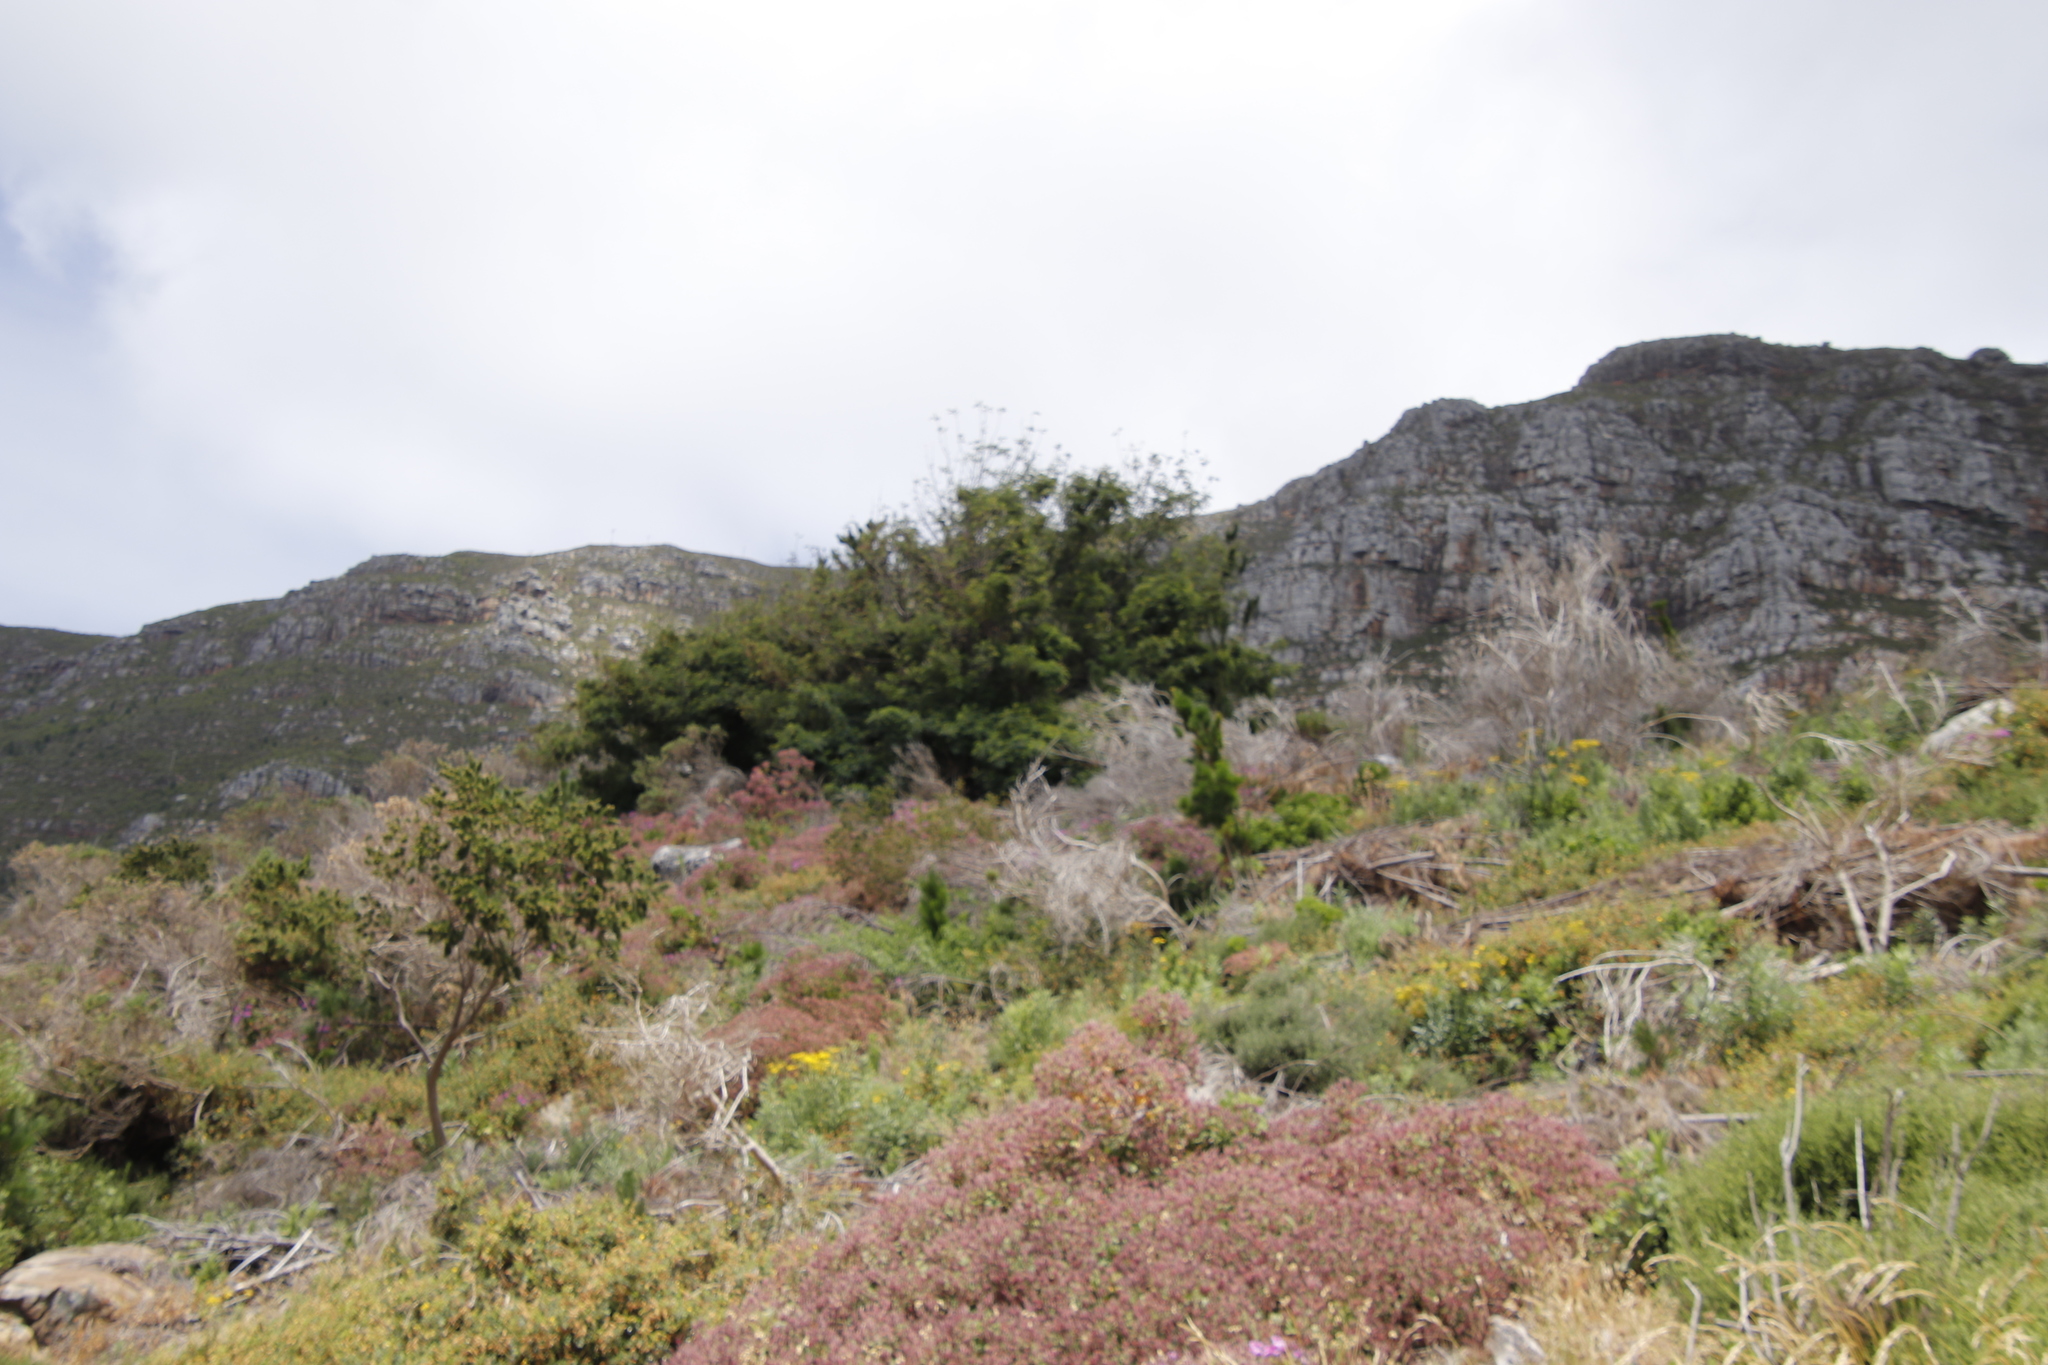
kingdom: Plantae
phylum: Tracheophyta
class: Magnoliopsida
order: Geraniales
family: Geraniaceae
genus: Pelargonium
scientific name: Pelargonium cucullatum
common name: Tree pelargonium
